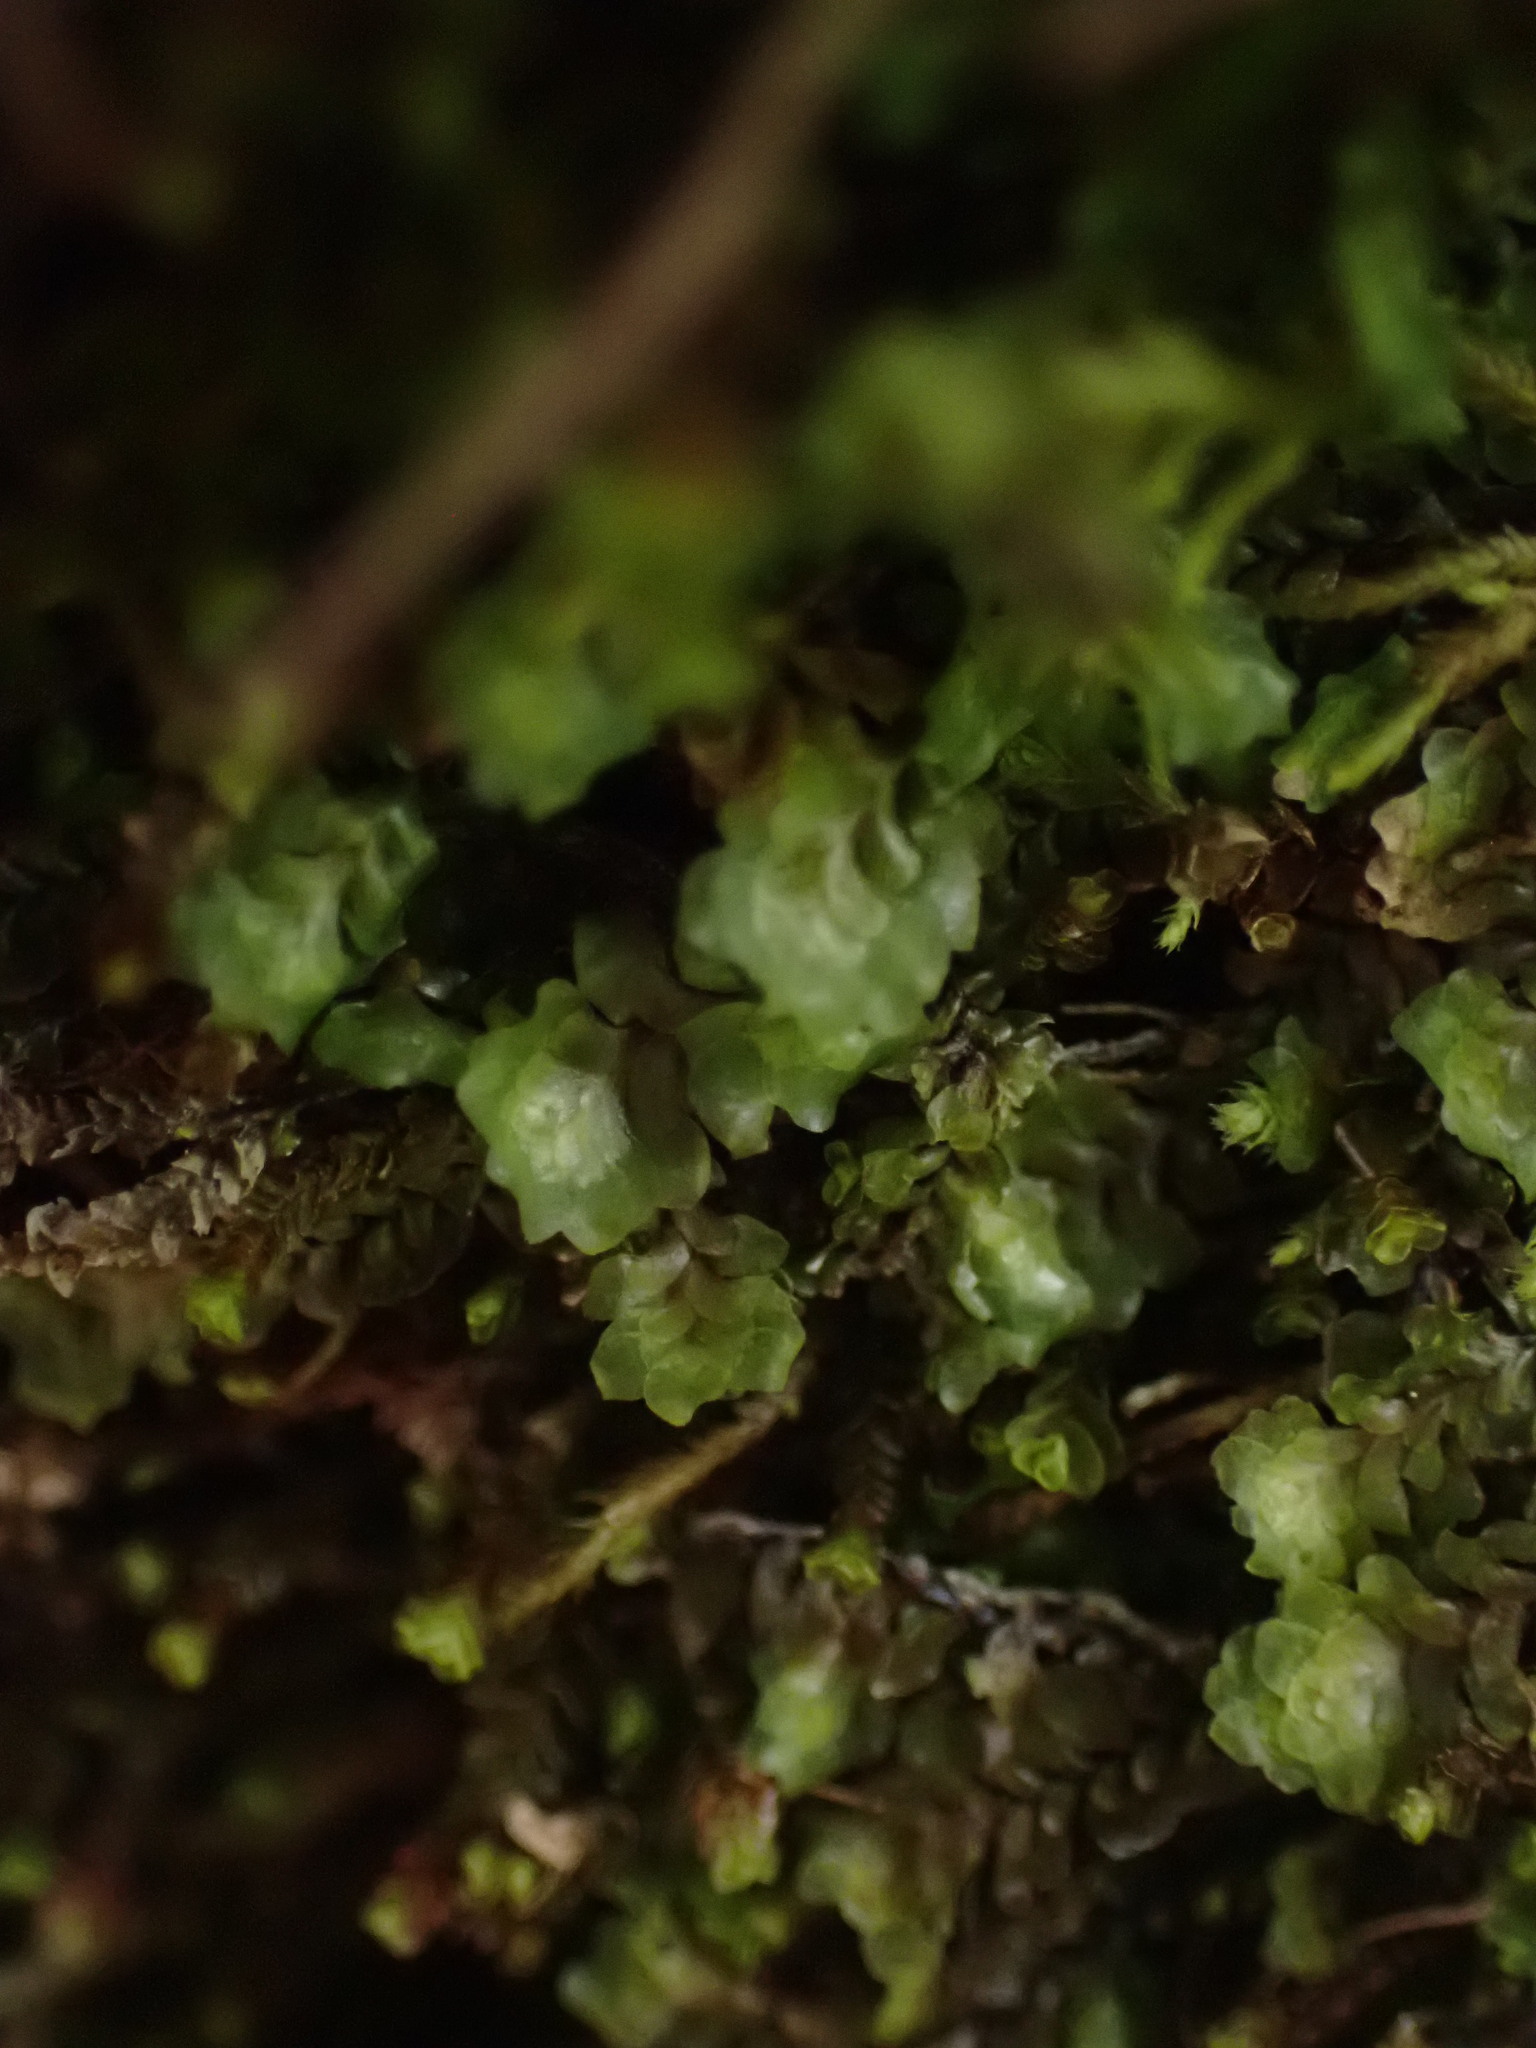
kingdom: Plantae
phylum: Marchantiophyta
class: Jungermanniopsida
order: Jungermanniales
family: Scapaniaceae
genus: Scapania
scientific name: Scapania undulata
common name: Water earwort
